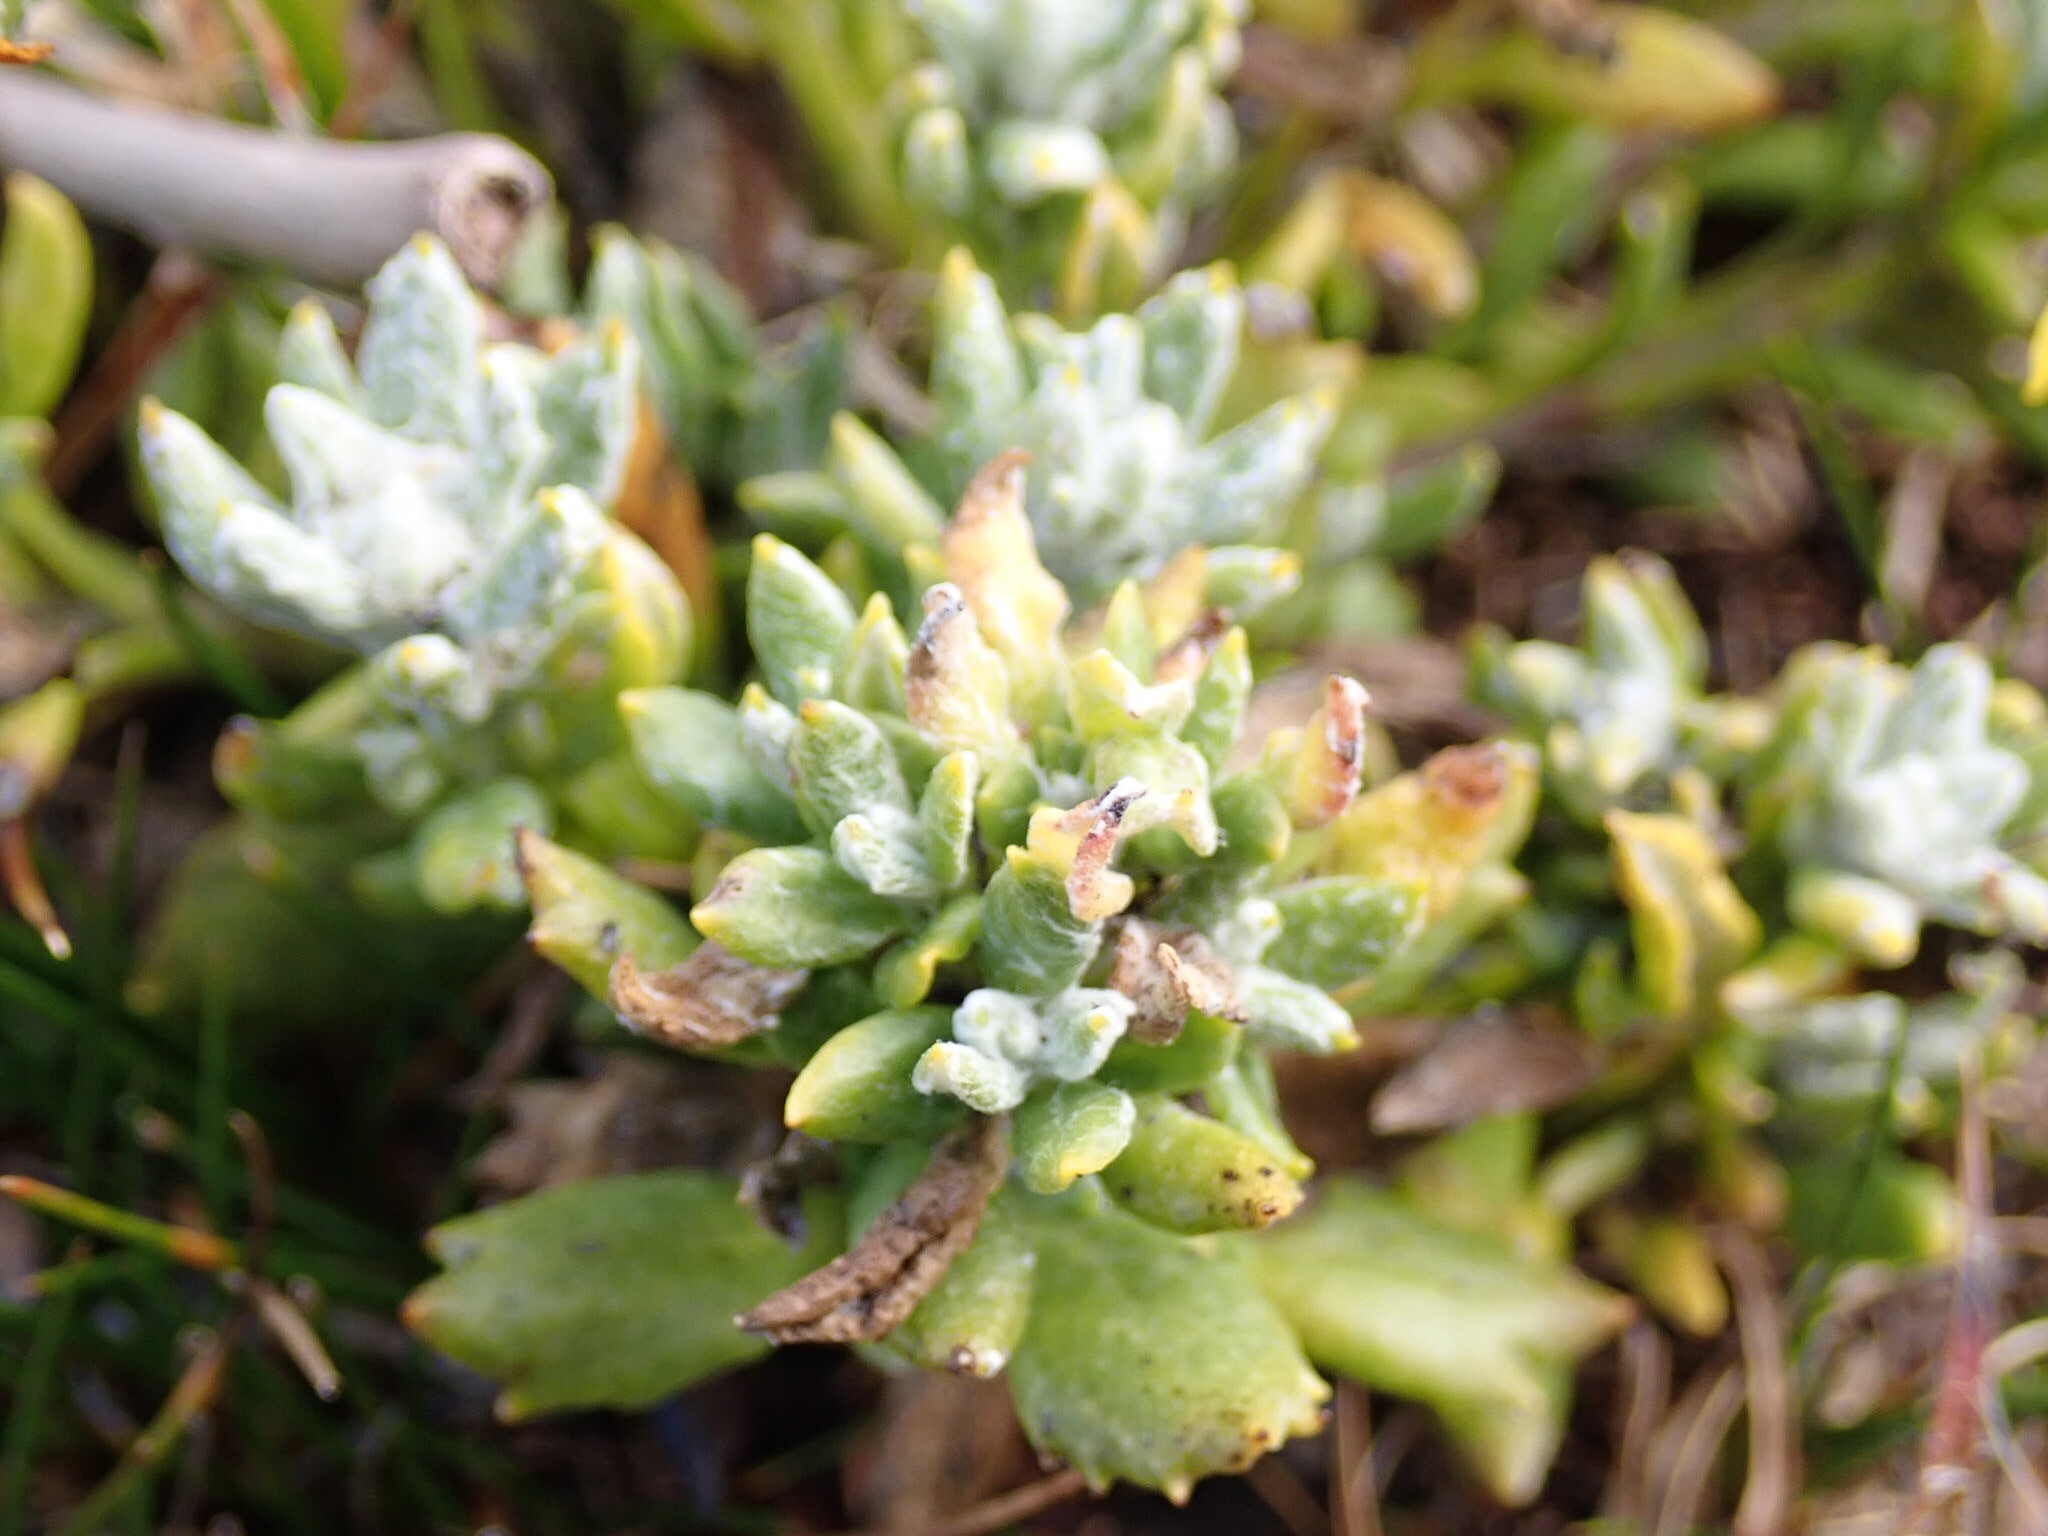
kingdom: Plantae
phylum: Tracheophyta
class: Magnoliopsida
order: Asterales
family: Asteraceae
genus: Senecio
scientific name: Senecio falklandicus
